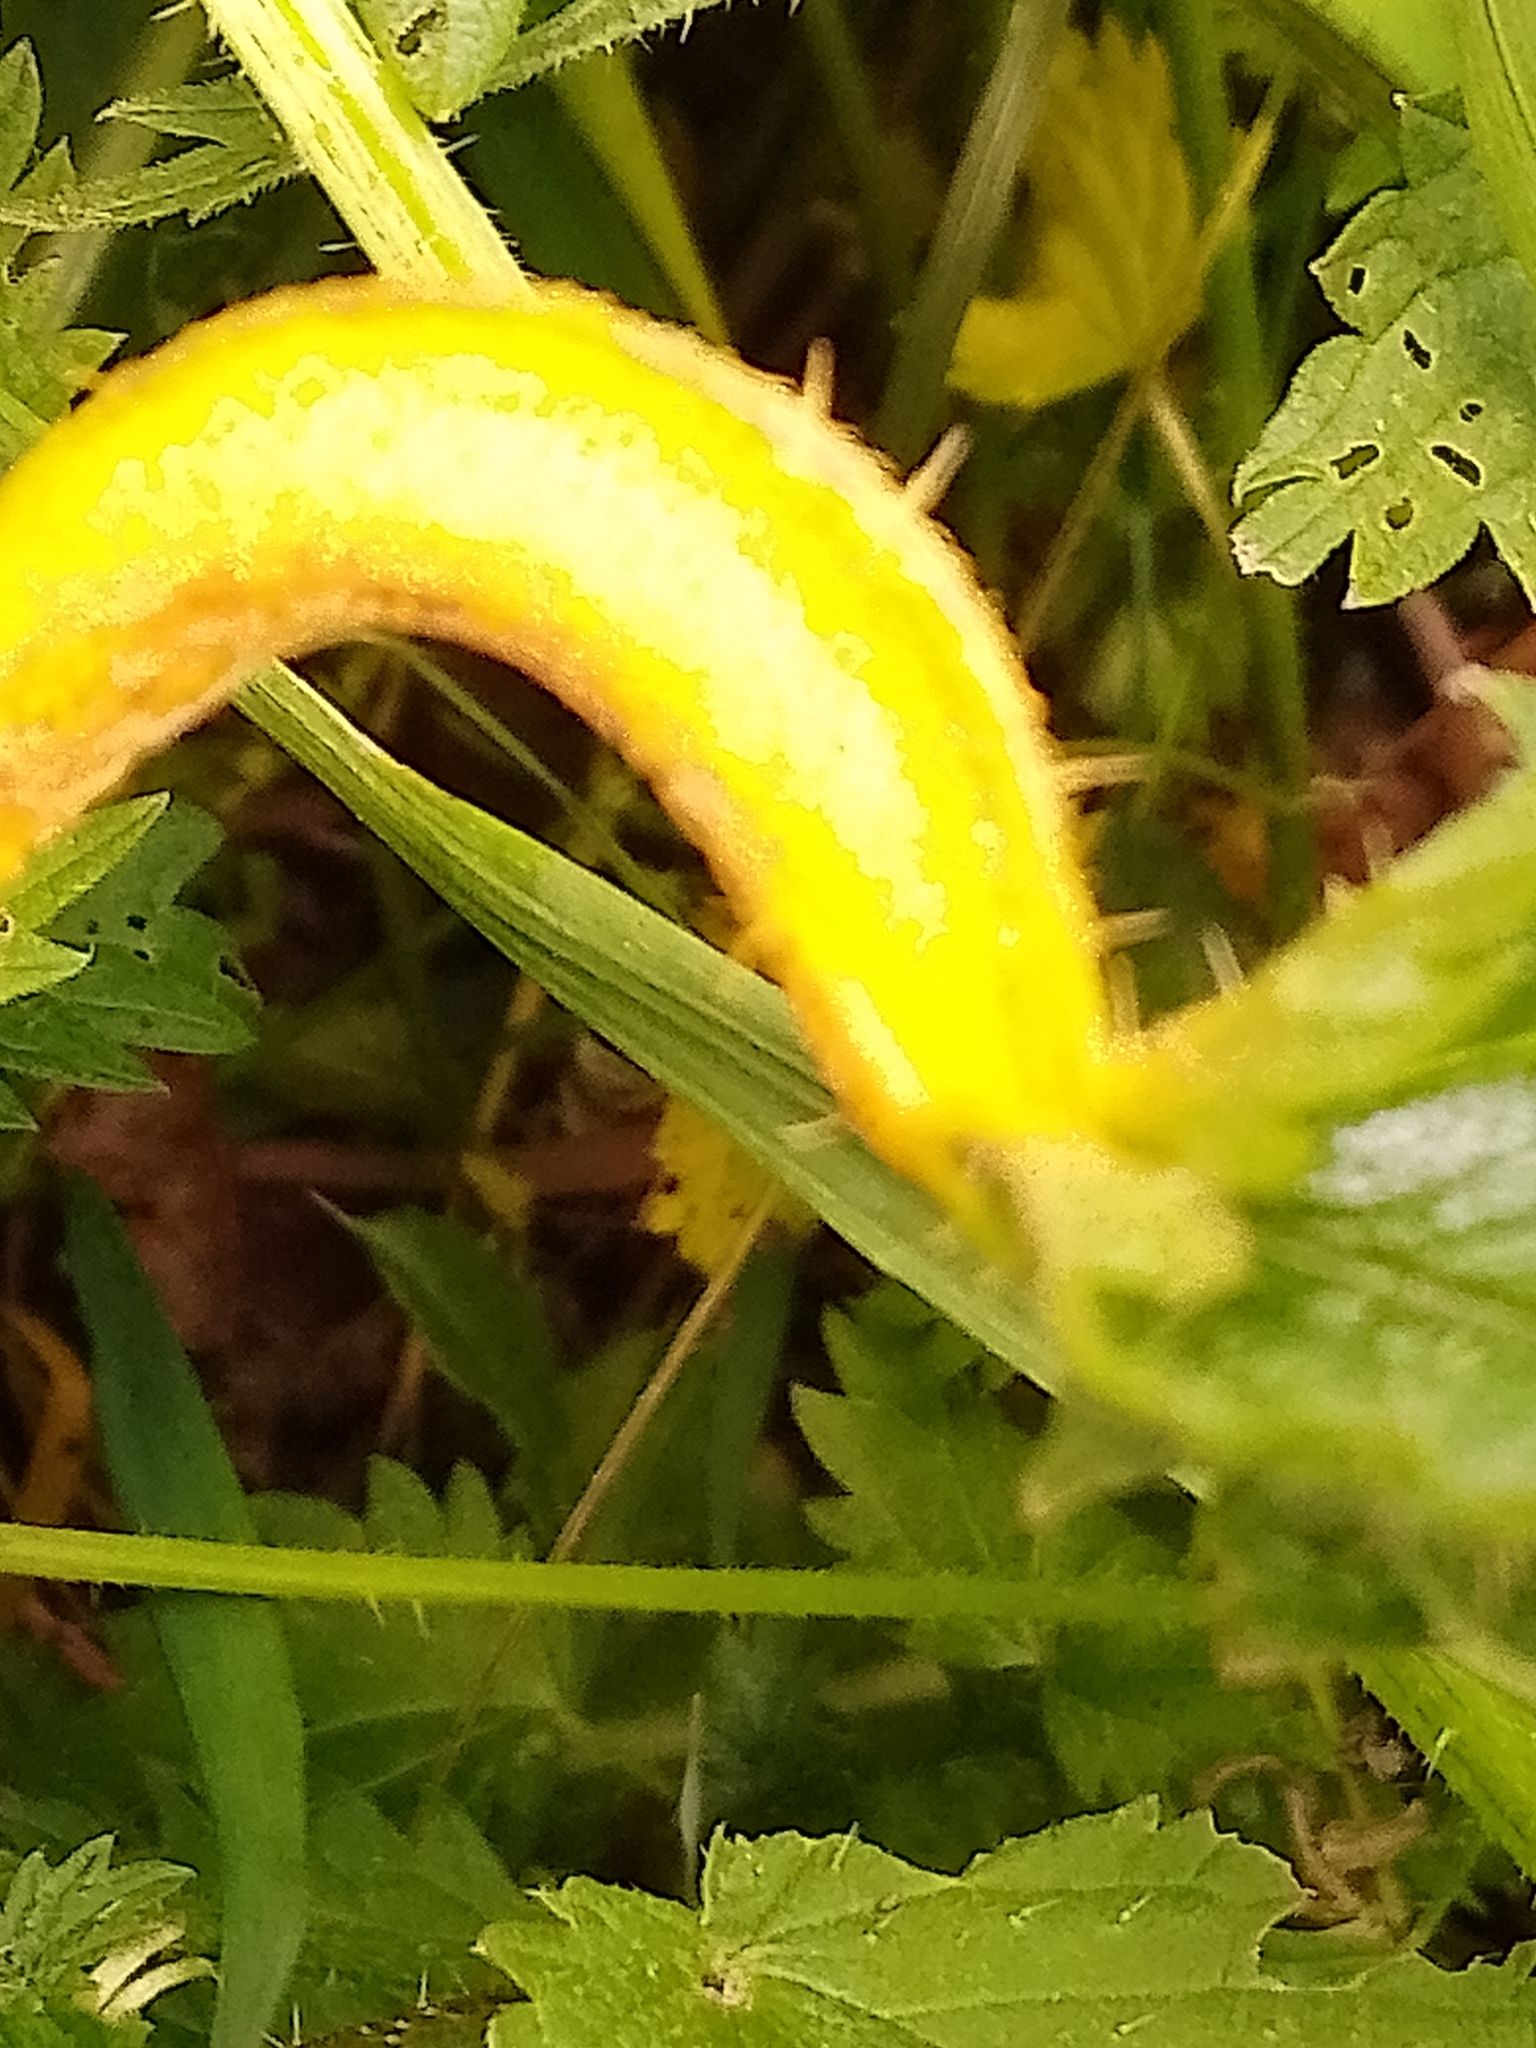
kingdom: Fungi
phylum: Basidiomycota
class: Pucciniomycetes
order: Pucciniales
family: Pucciniaceae
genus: Puccinia
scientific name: Puccinia urticata
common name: Nettle clustercup rust fungus
